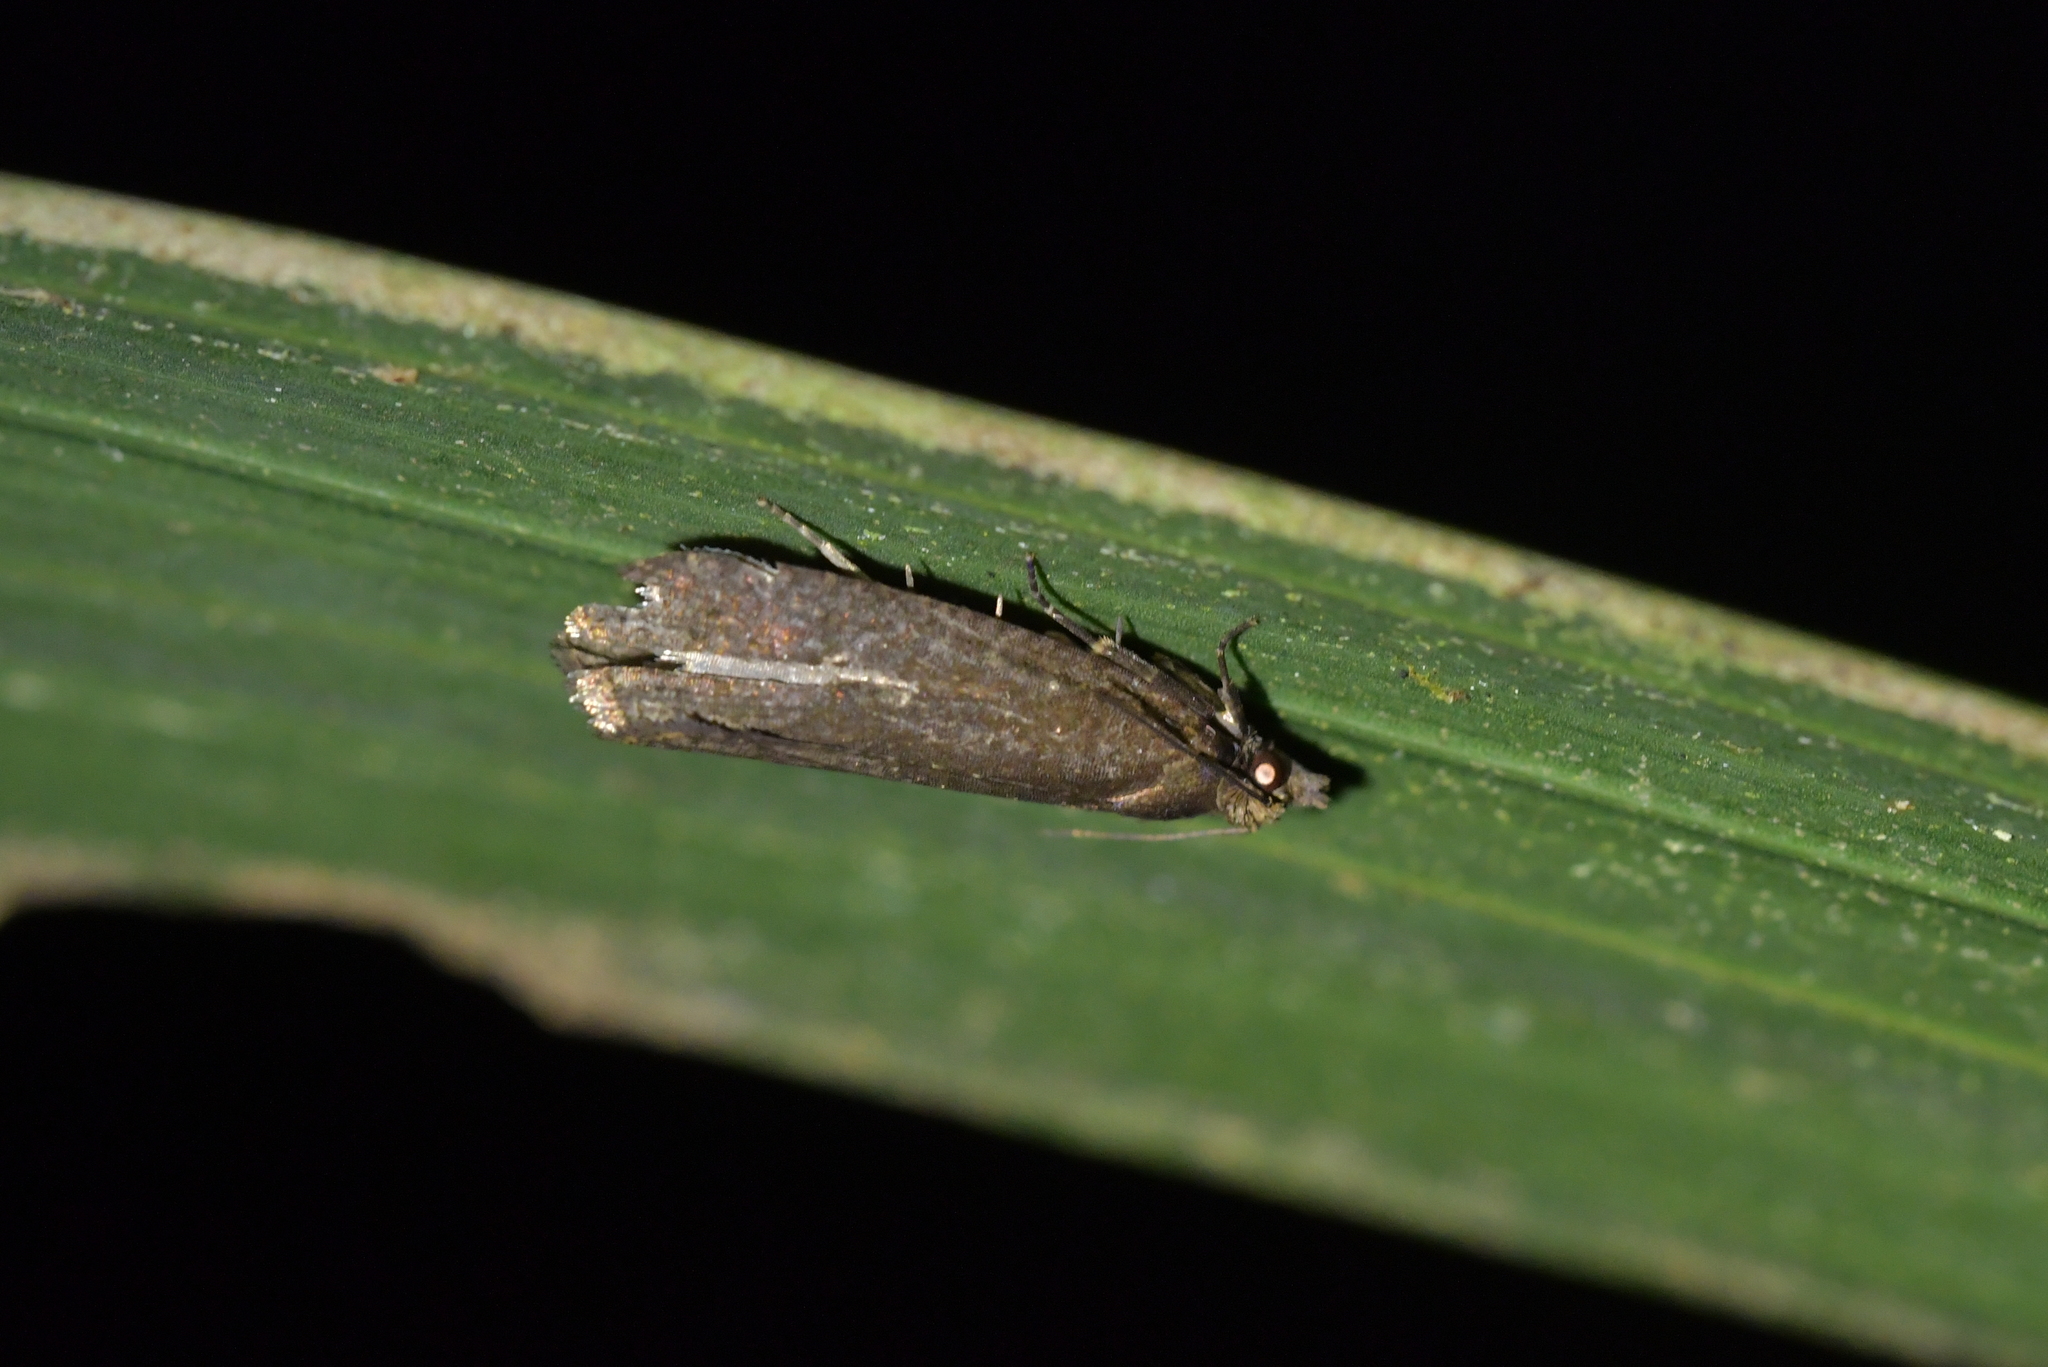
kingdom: Animalia
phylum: Arthropoda
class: Insecta
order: Lepidoptera
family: Tortricidae
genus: Cryptaspasma
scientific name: Cryptaspasma querula
